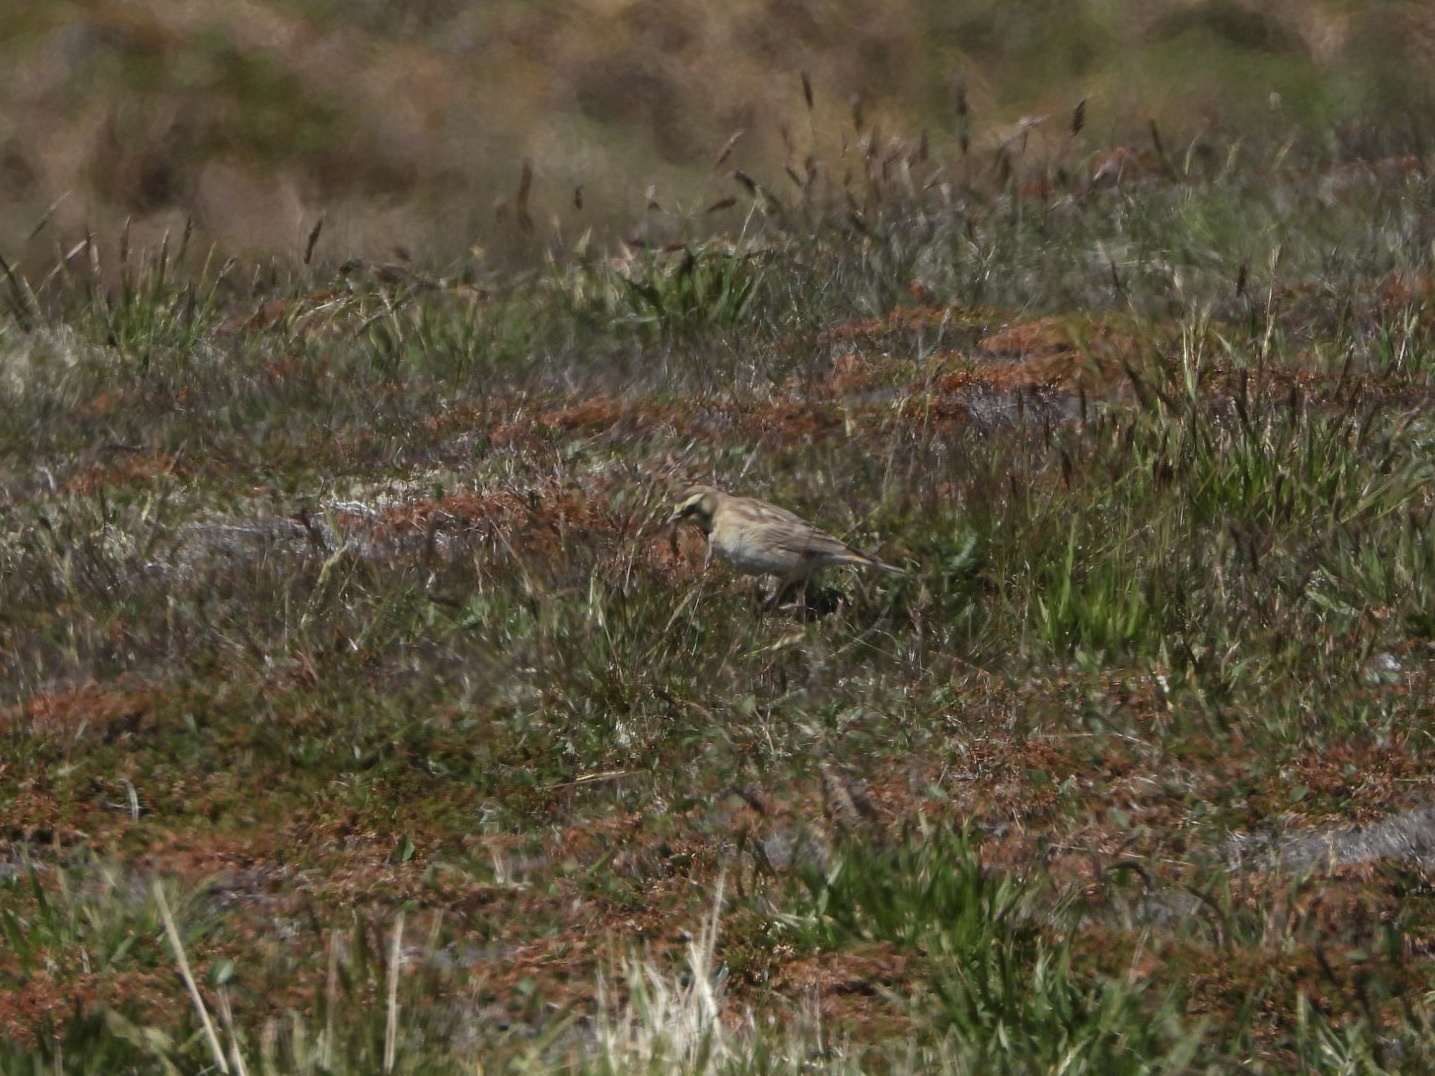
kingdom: Animalia
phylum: Chordata
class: Aves
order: Passeriformes
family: Alaudidae
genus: Eremophila
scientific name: Eremophila alpestris
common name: Horned lark
